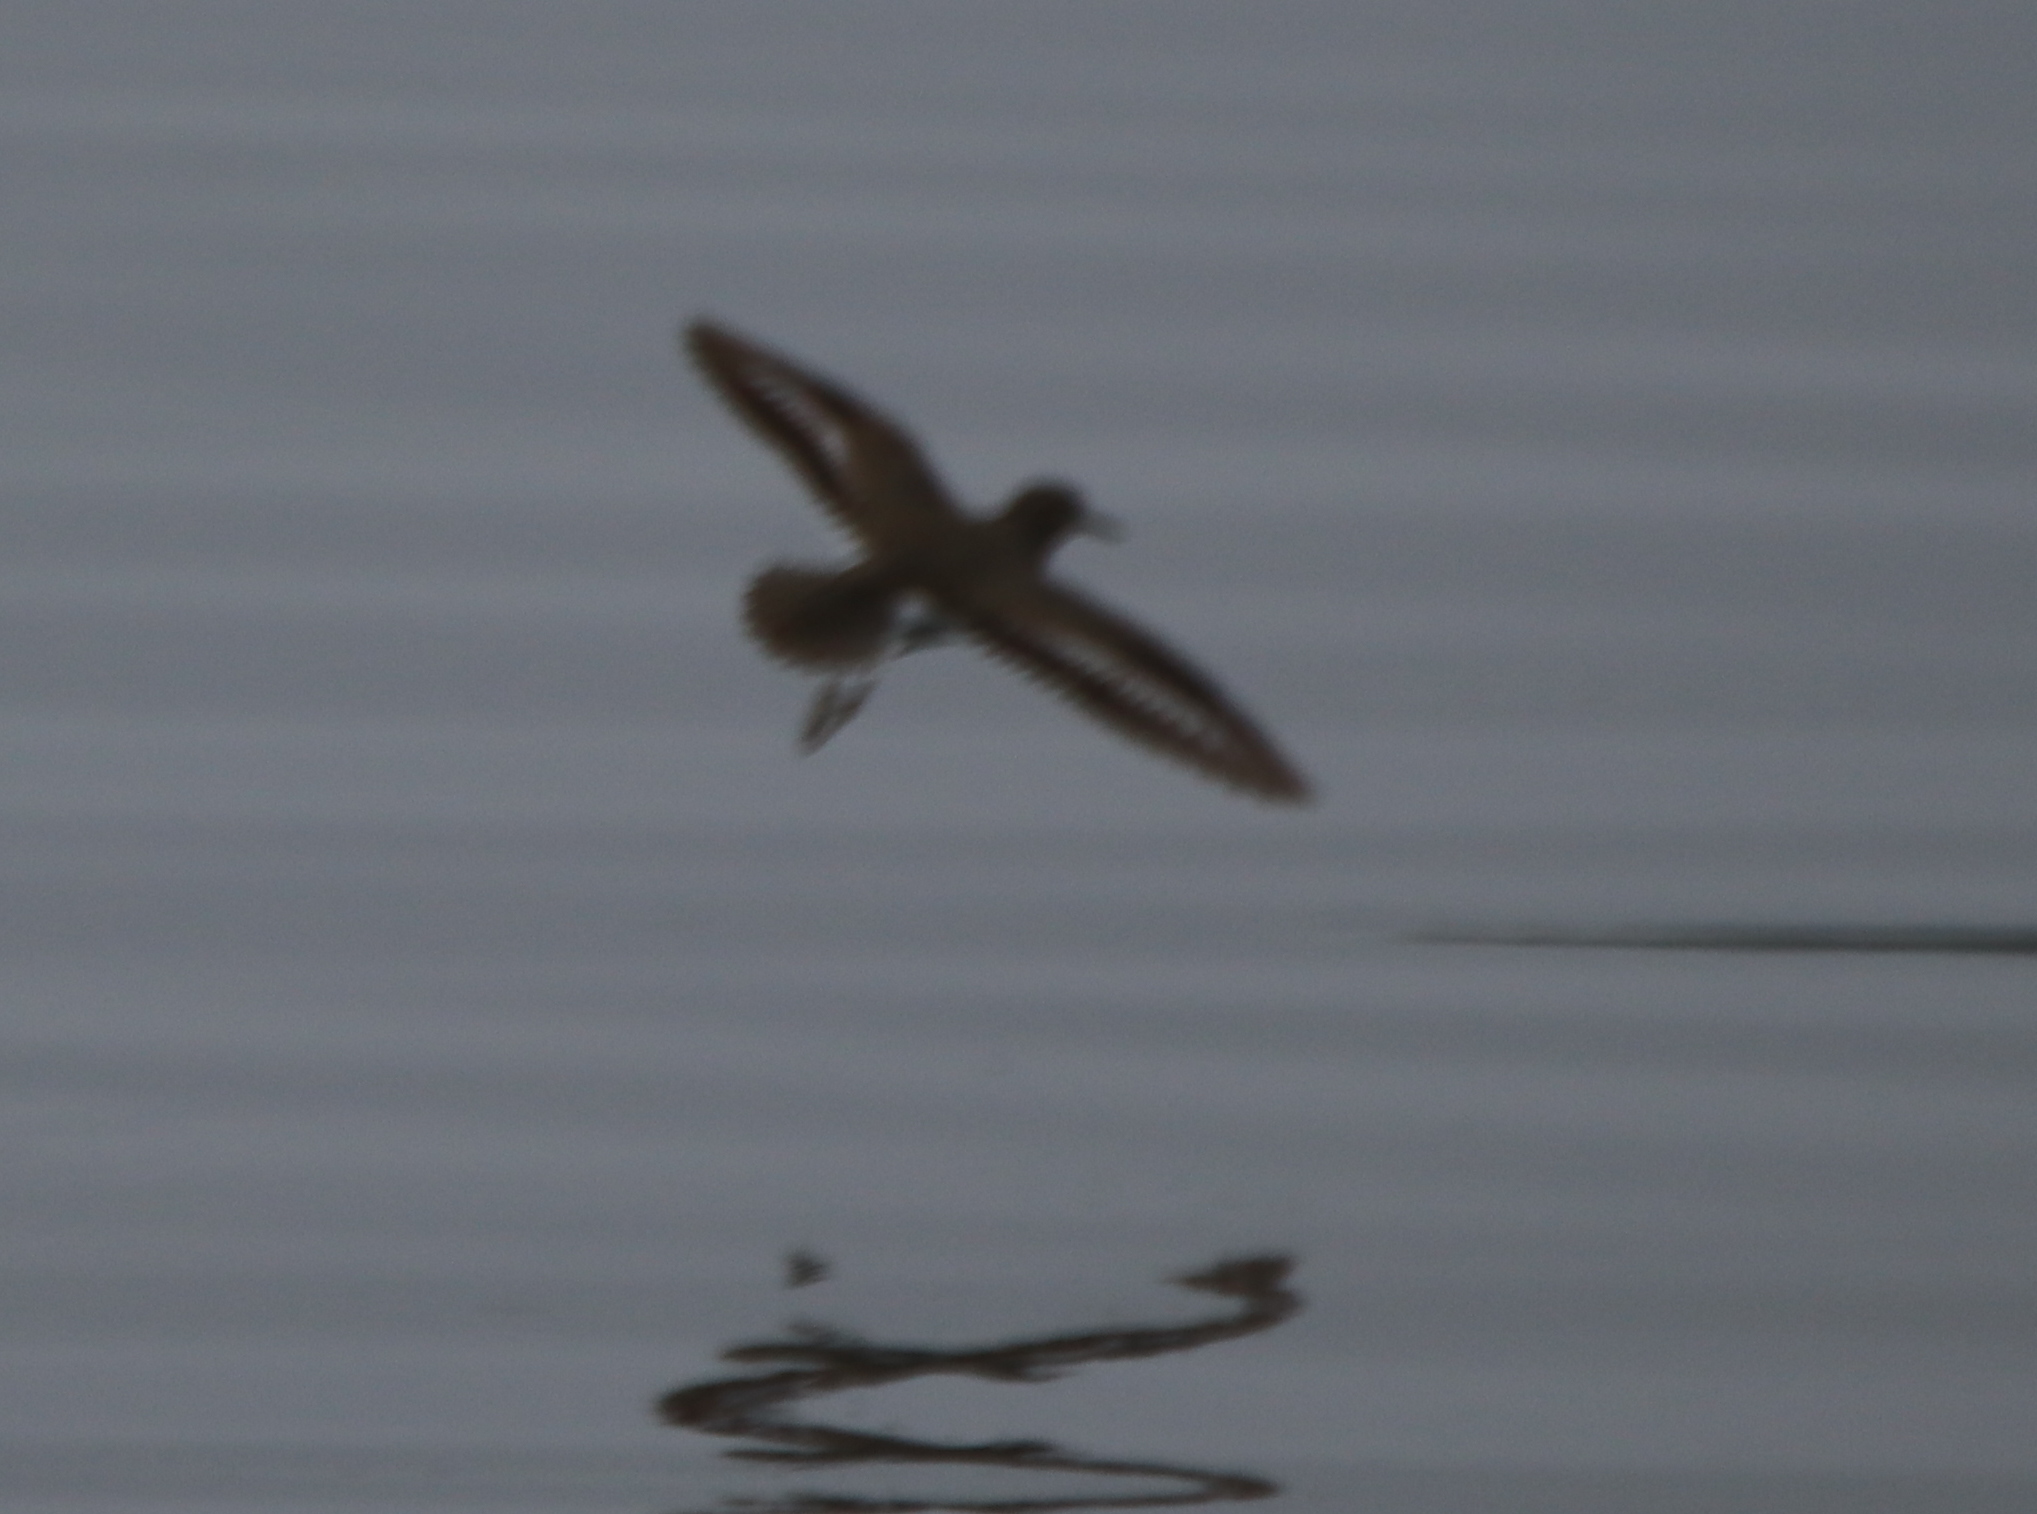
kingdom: Animalia
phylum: Chordata
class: Aves
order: Charadriiformes
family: Scolopacidae
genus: Actitis
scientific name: Actitis macularius
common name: Spotted sandpiper
